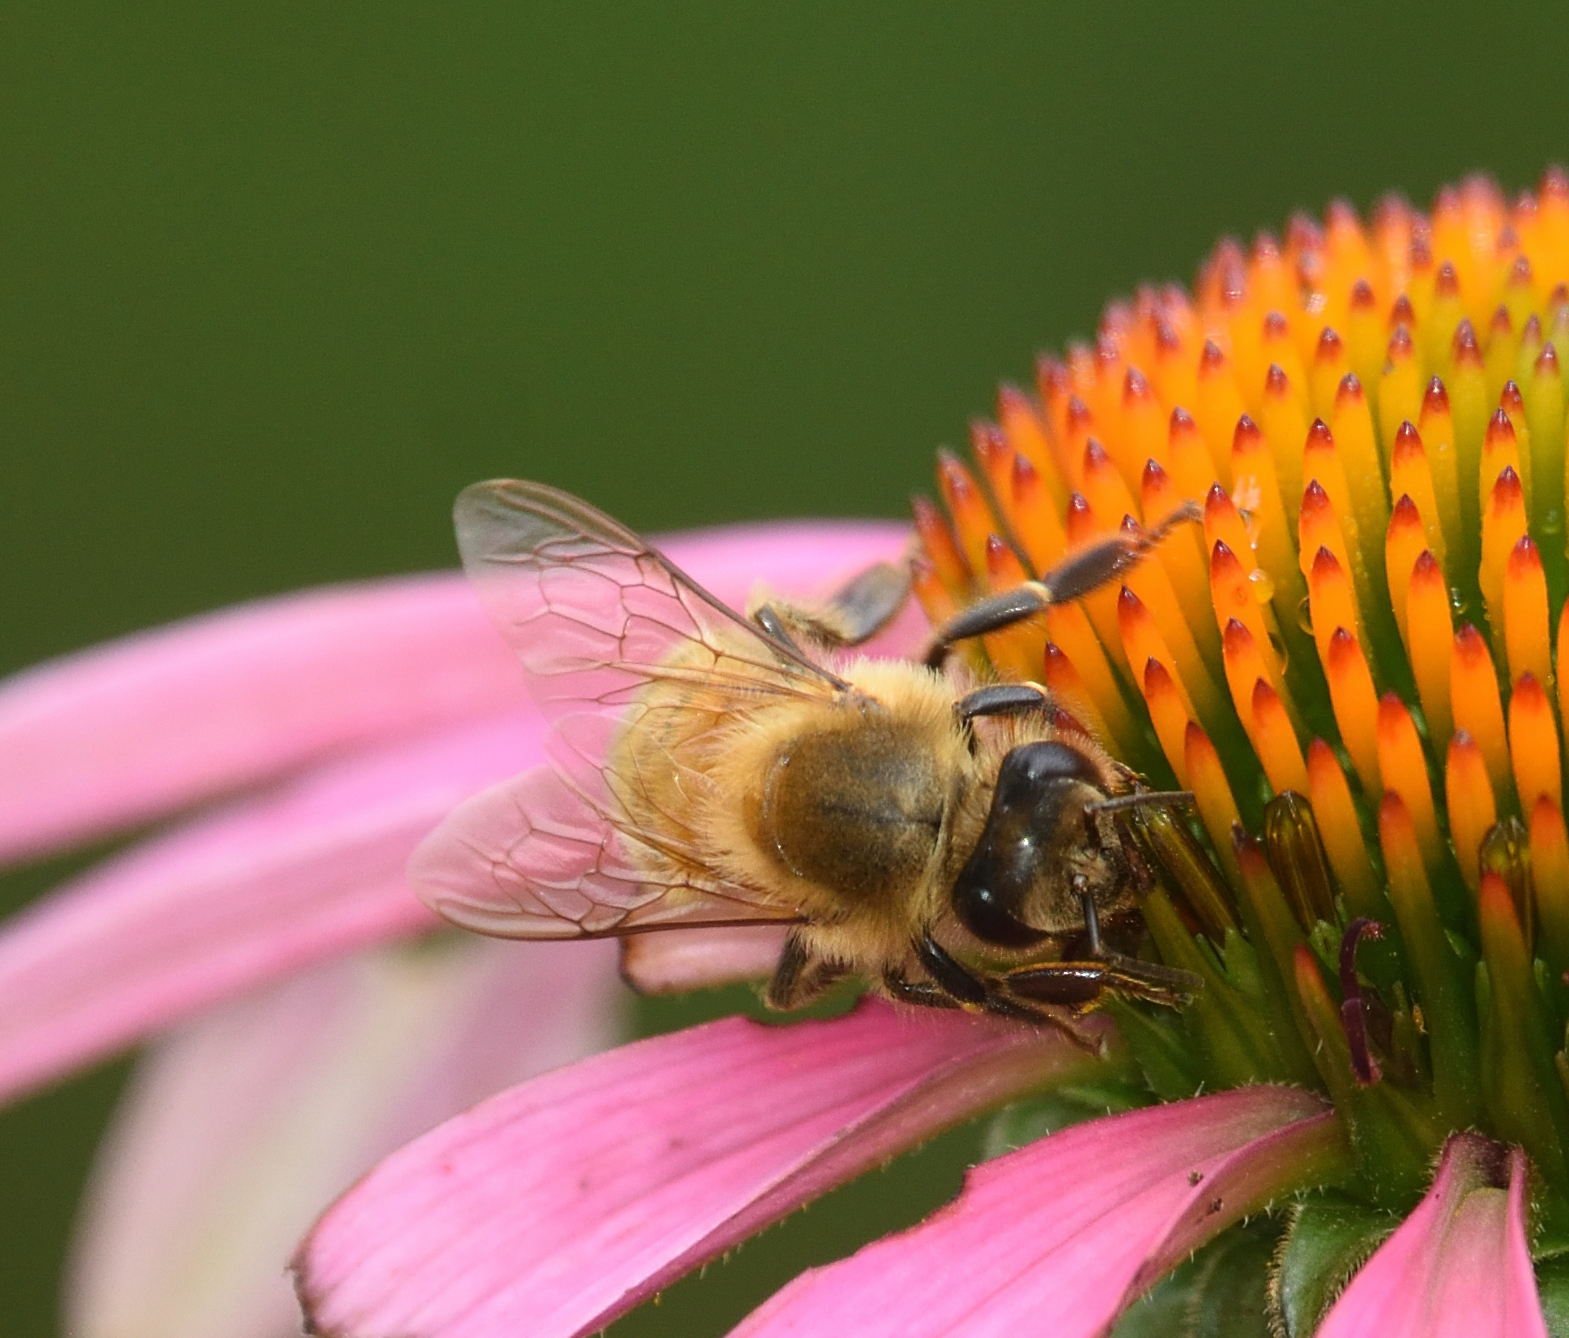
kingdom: Animalia
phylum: Arthropoda
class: Insecta
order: Hymenoptera
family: Apidae
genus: Apis
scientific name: Apis mellifera
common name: Honey bee
